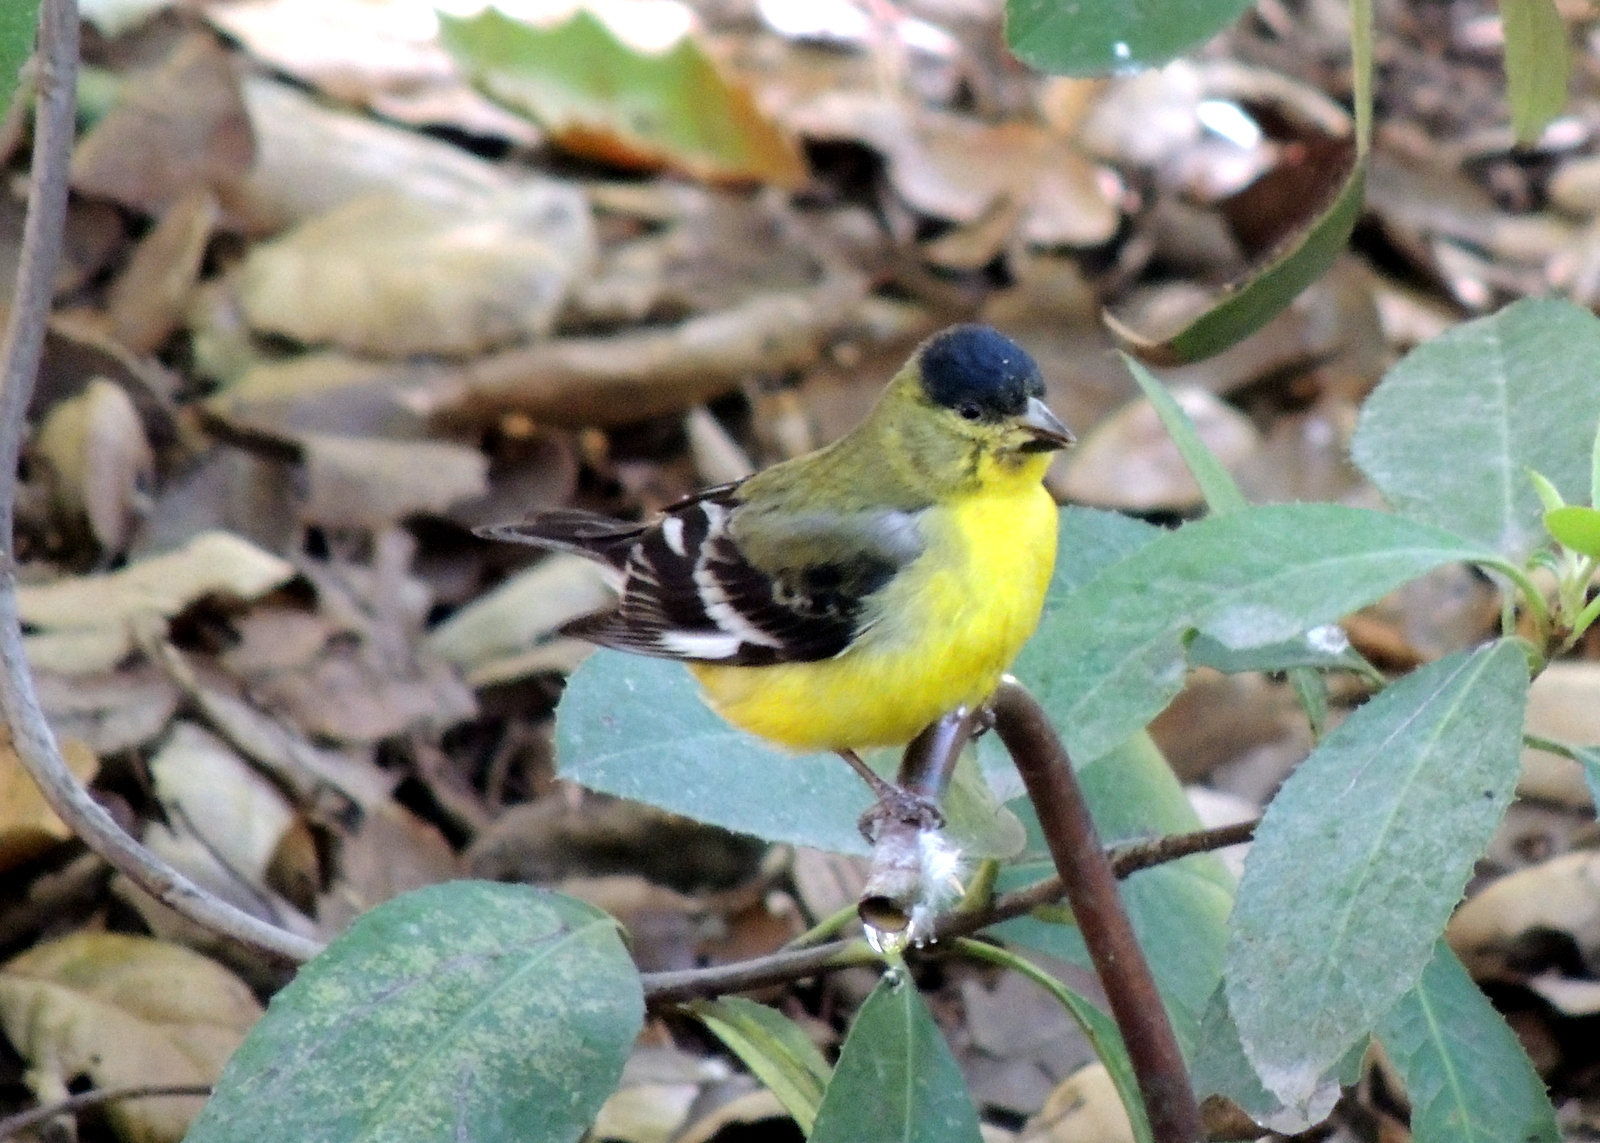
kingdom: Animalia
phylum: Chordata
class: Aves
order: Passeriformes
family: Fringillidae
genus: Spinus
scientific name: Spinus psaltria
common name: Lesser goldfinch
